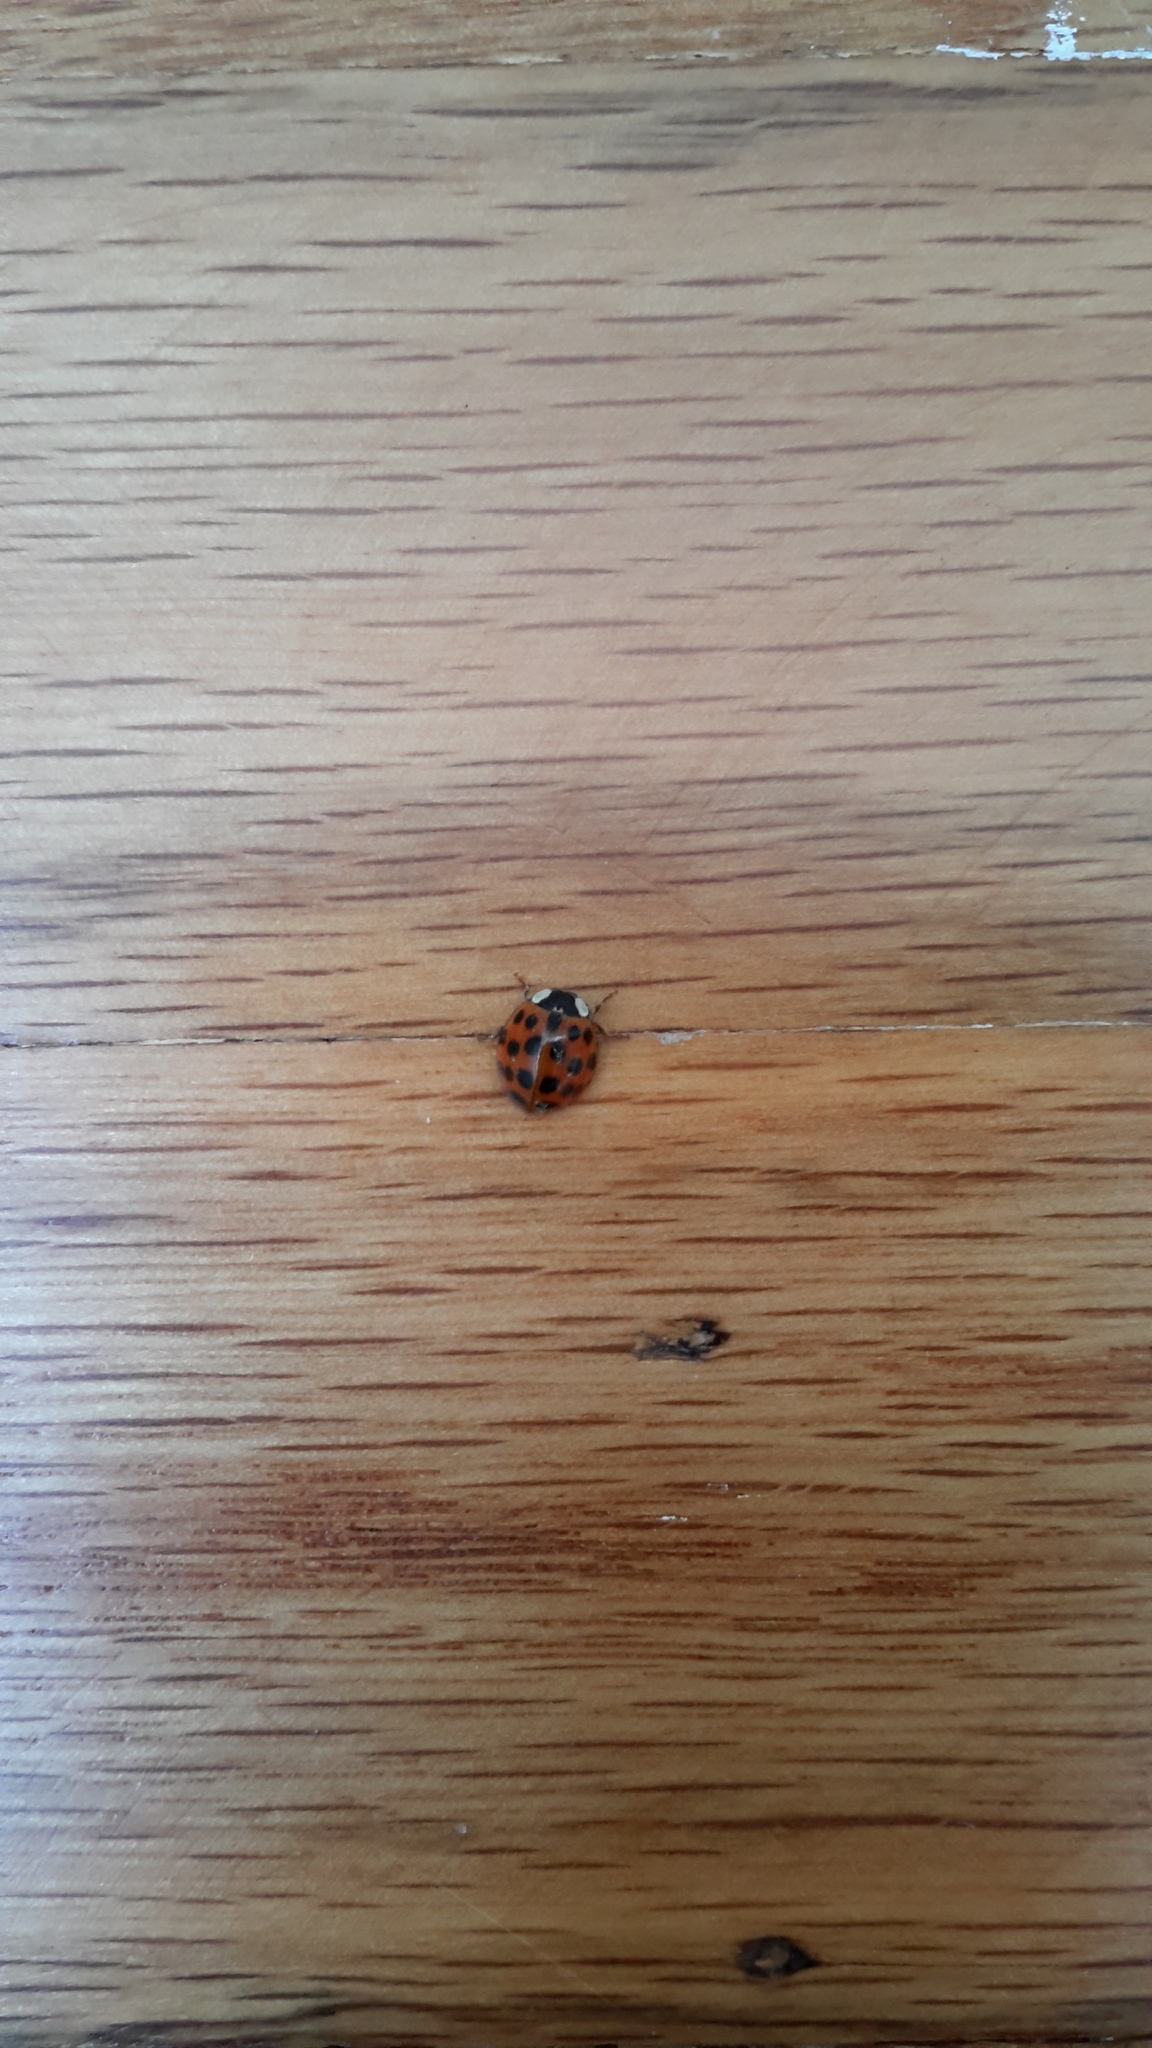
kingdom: Animalia
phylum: Arthropoda
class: Insecta
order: Coleoptera
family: Coccinellidae
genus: Harmonia
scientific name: Harmonia axyridis
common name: Harlequin ladybird
